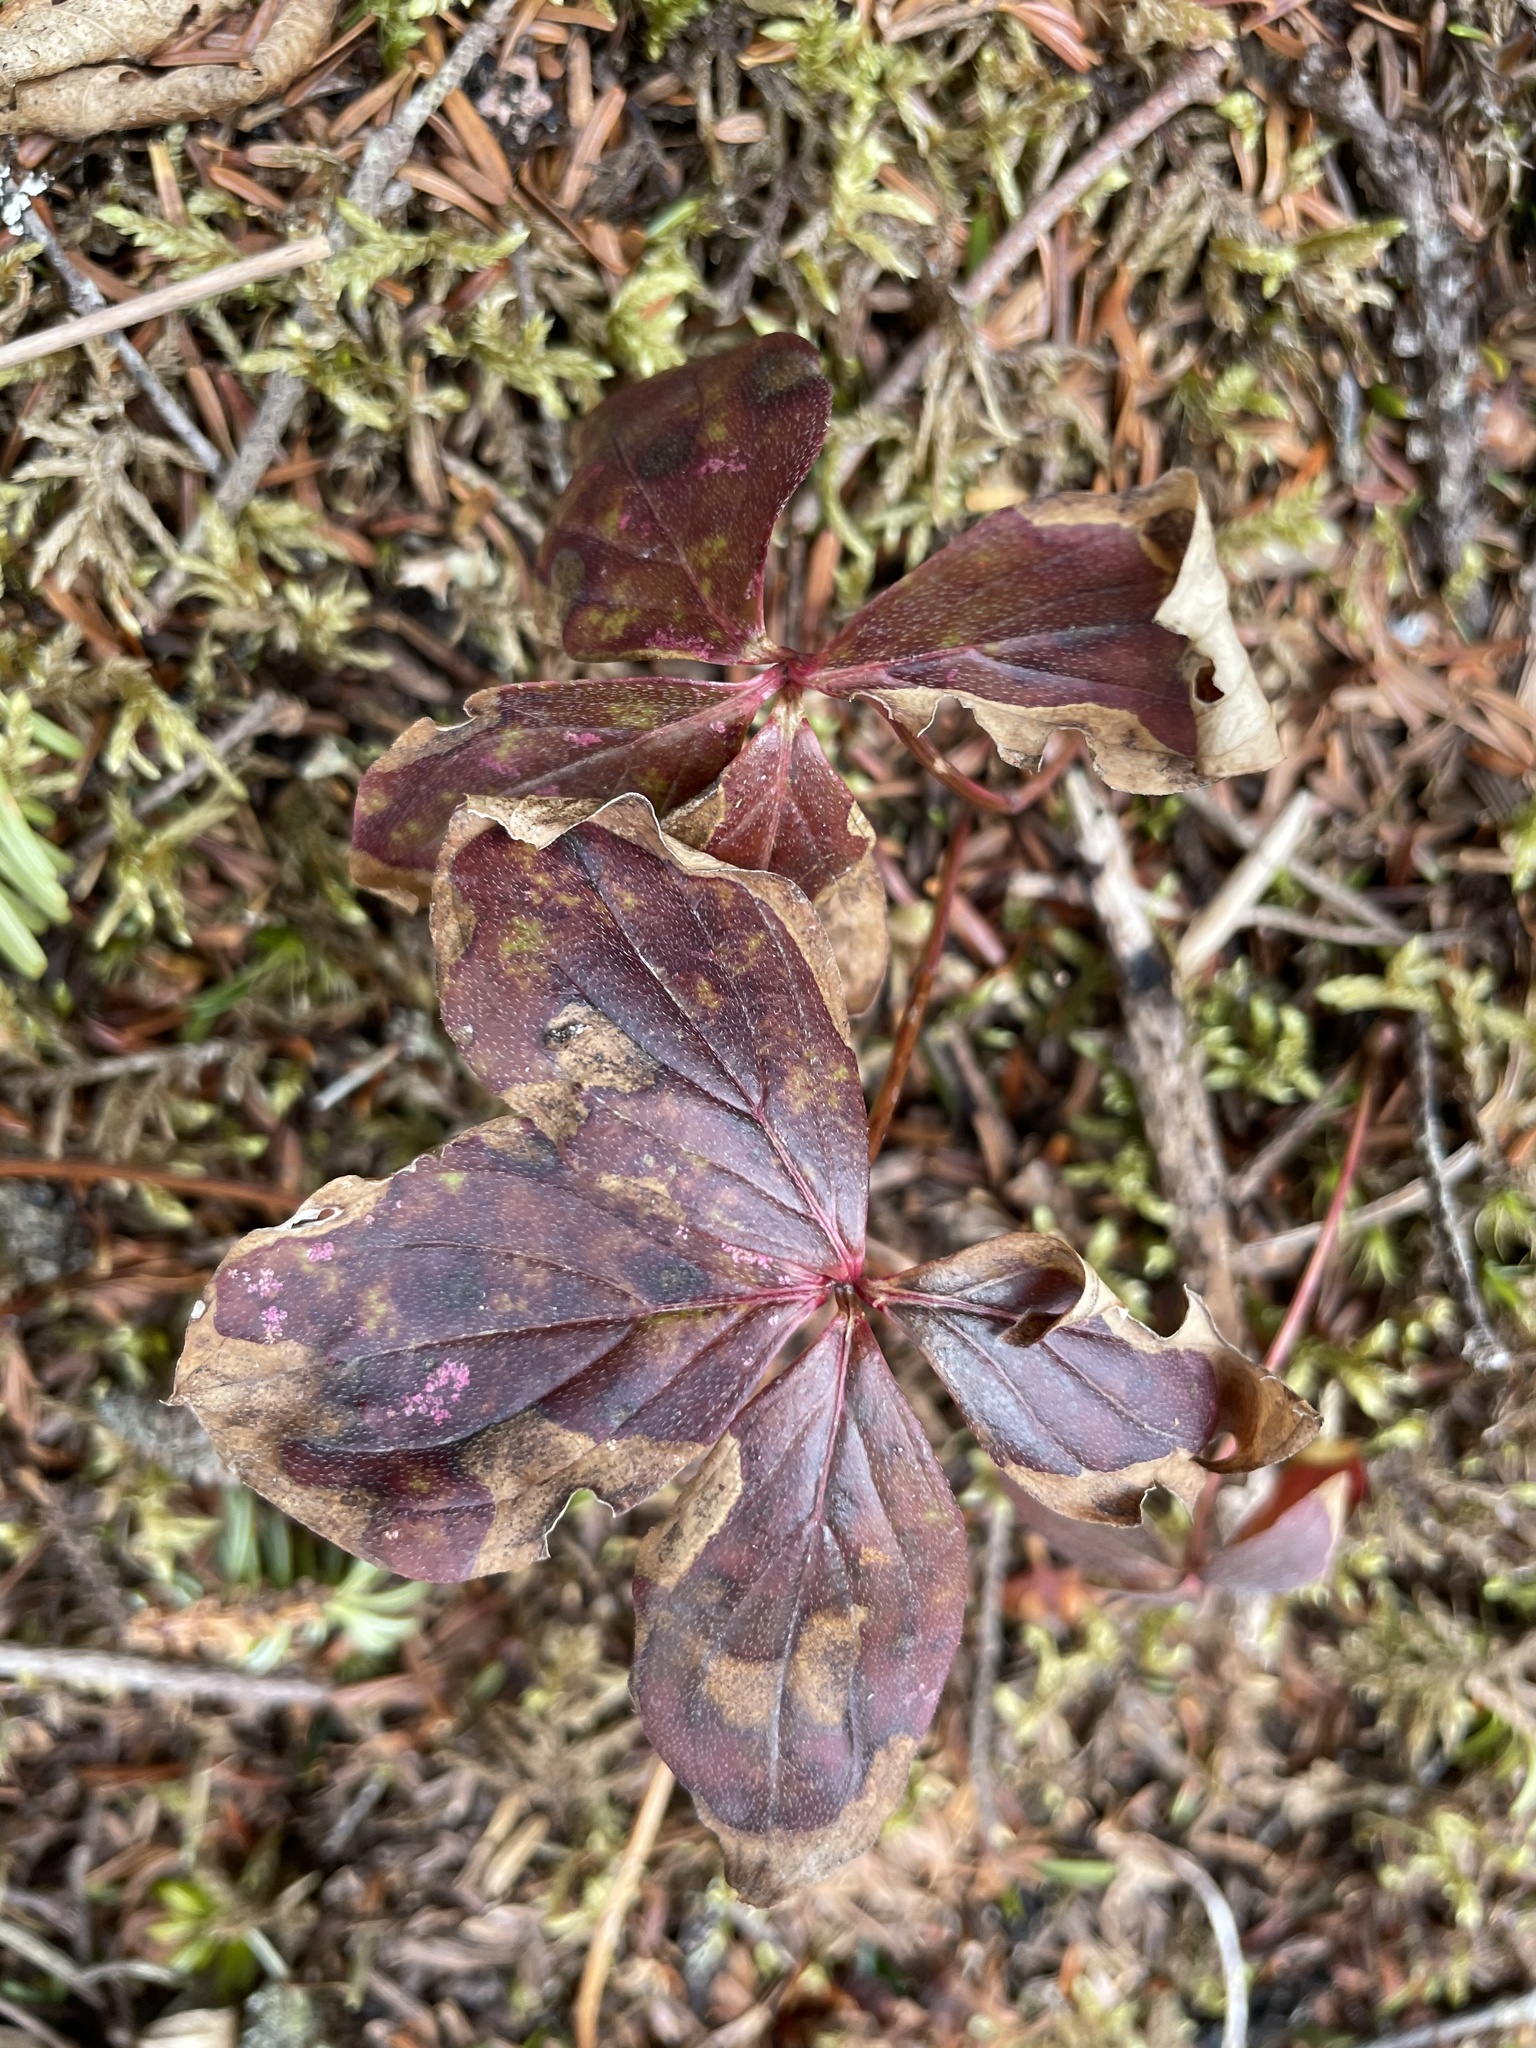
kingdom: Plantae
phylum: Tracheophyta
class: Magnoliopsida
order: Cornales
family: Cornaceae
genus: Cornus
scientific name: Cornus canadensis
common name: Creeping dogwood
